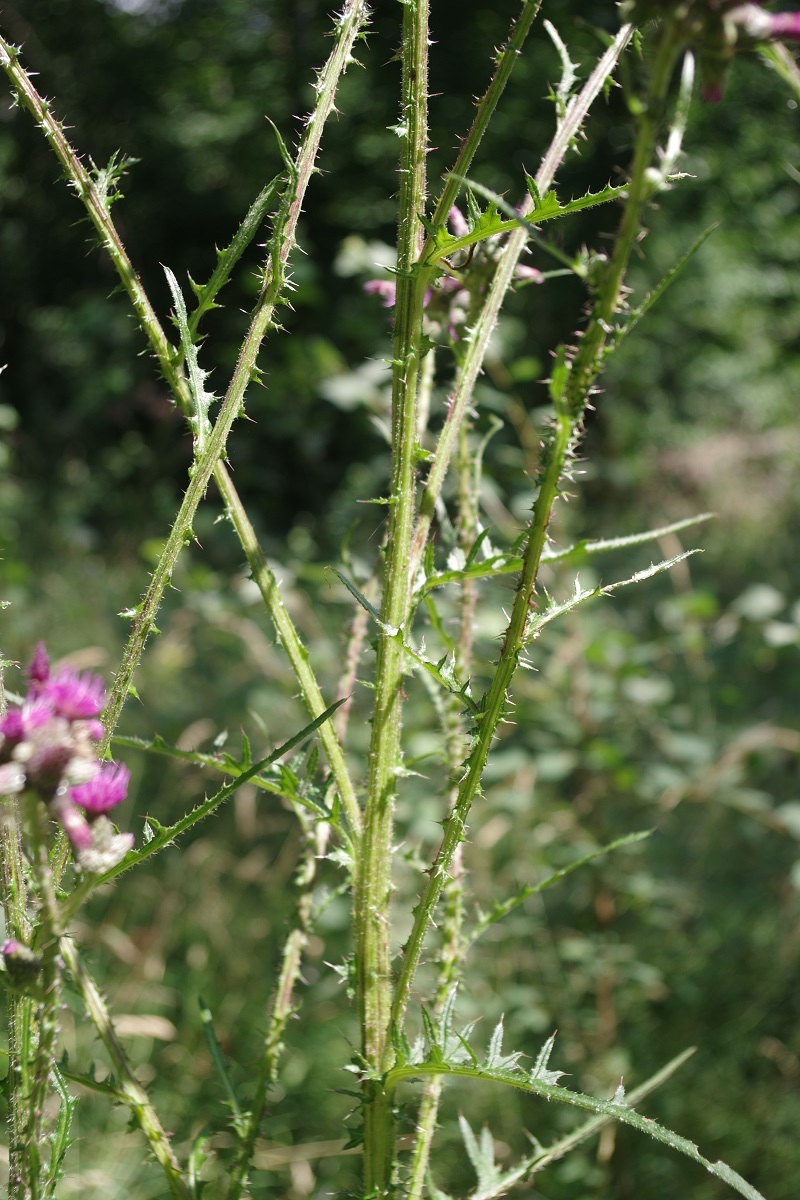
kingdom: Plantae
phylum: Tracheophyta
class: Magnoliopsida
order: Asterales
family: Asteraceae
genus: Cirsium
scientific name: Cirsium palustre
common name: Marsh thistle
